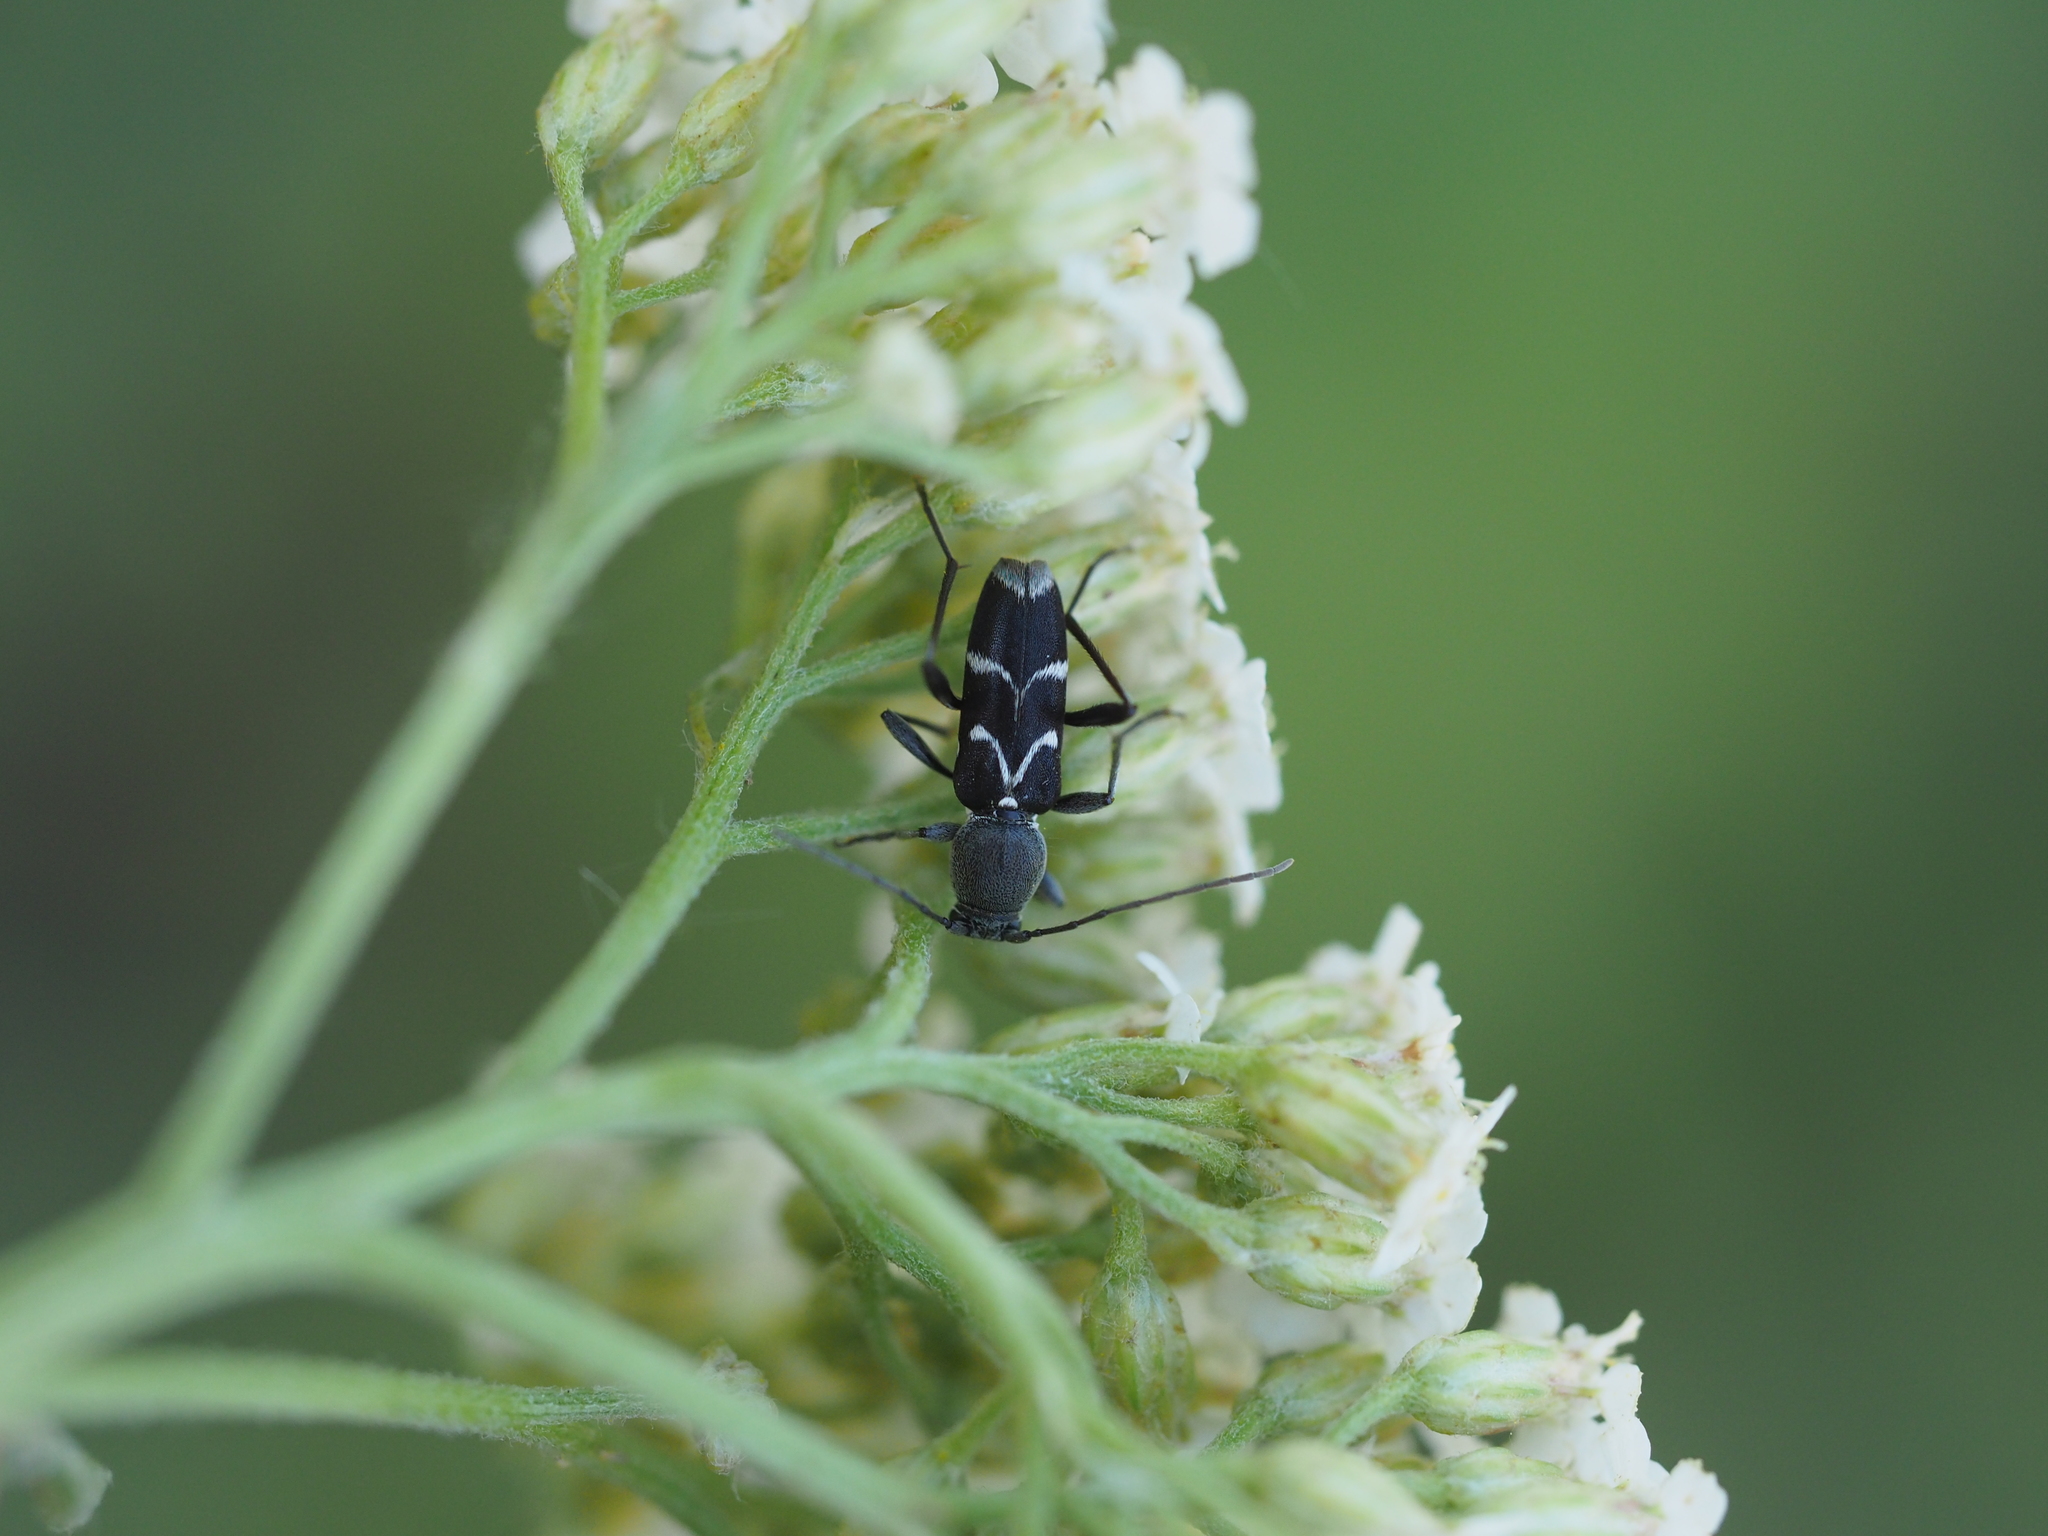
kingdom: Animalia
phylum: Arthropoda
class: Insecta
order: Coleoptera
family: Cerambycidae
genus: Chlorophorus
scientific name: Chlorophorus sartor
